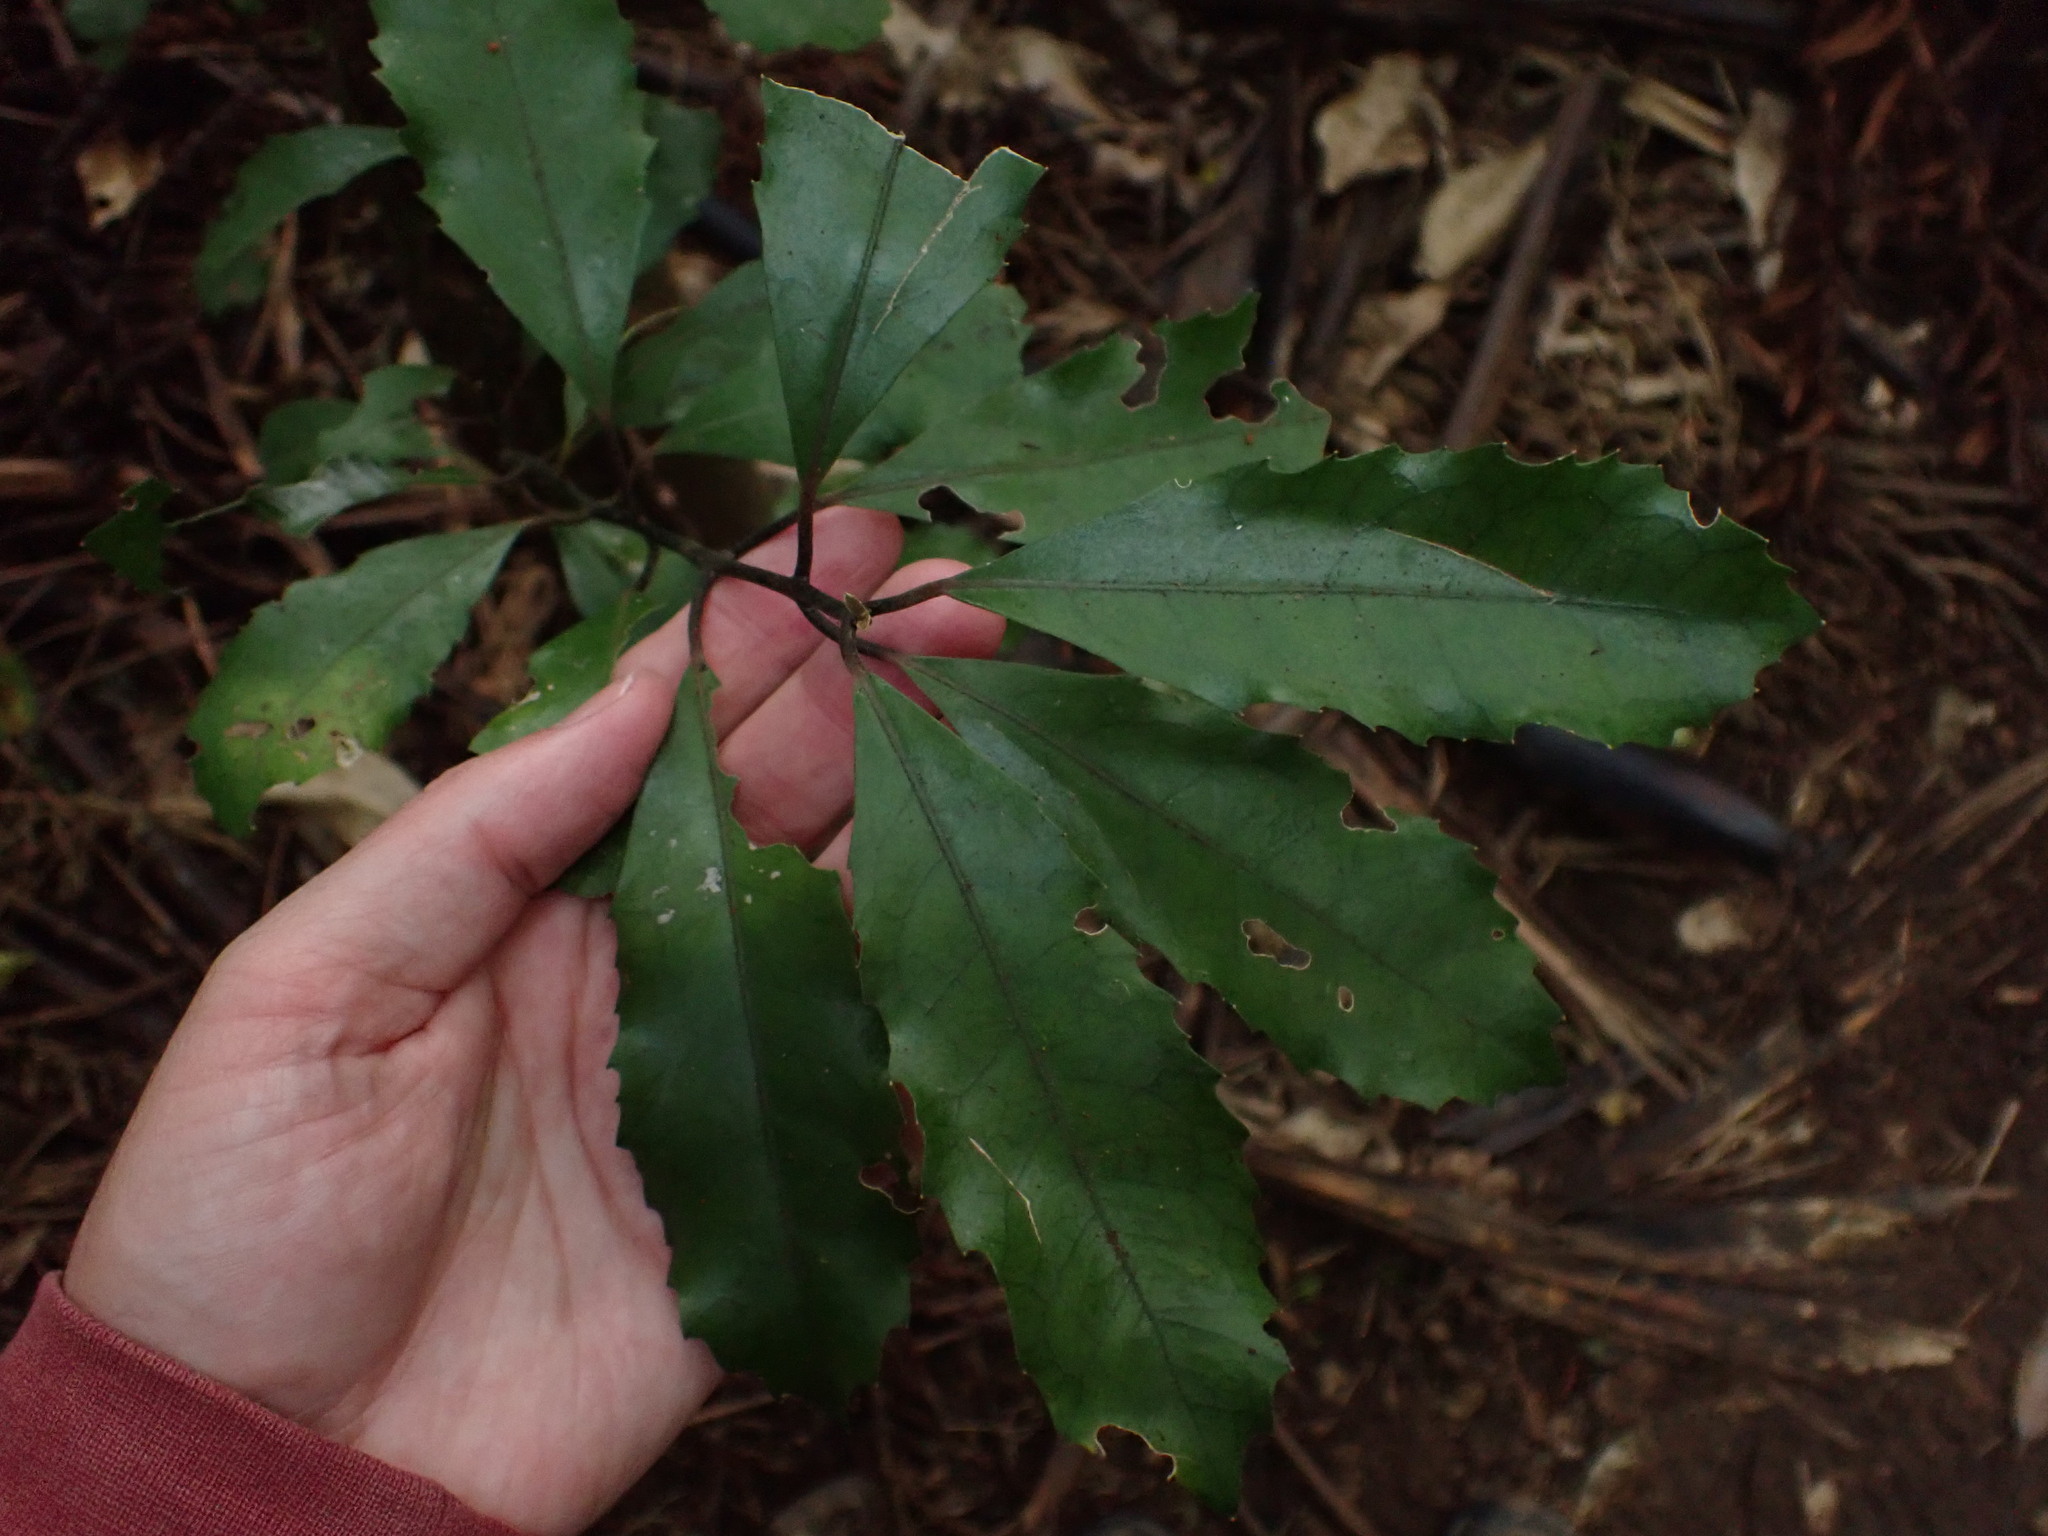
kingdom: Plantae
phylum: Tracheophyta
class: Magnoliopsida
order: Laurales
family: Monimiaceae
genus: Hedycarya
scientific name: Hedycarya arborea
